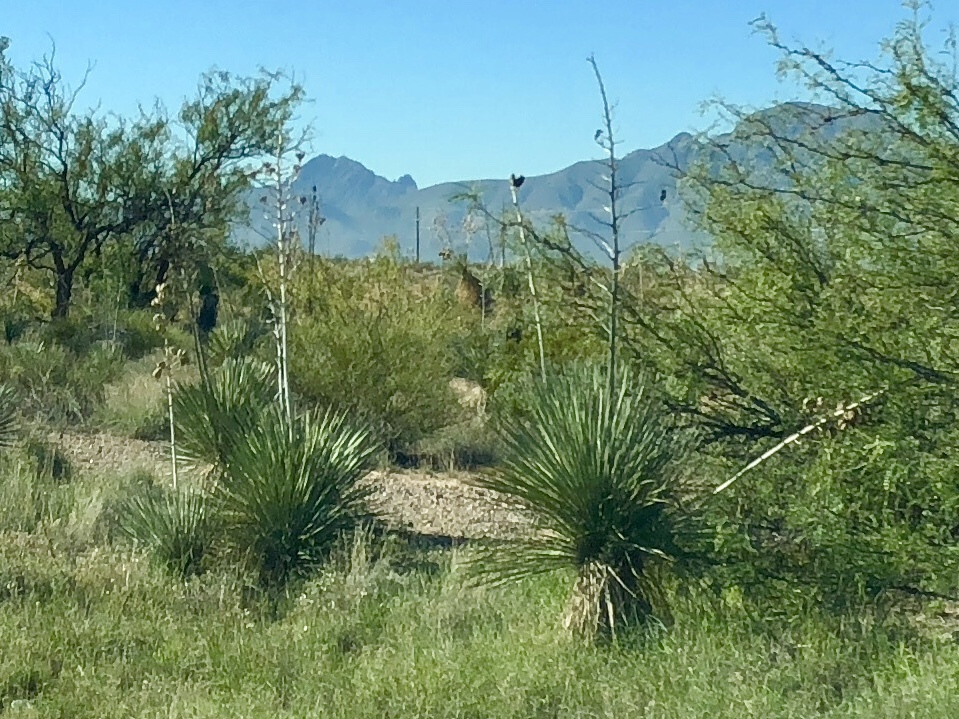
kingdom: Plantae
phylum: Tracheophyta
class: Liliopsida
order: Asparagales
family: Asparagaceae
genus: Yucca
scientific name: Yucca elata
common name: Palmella
